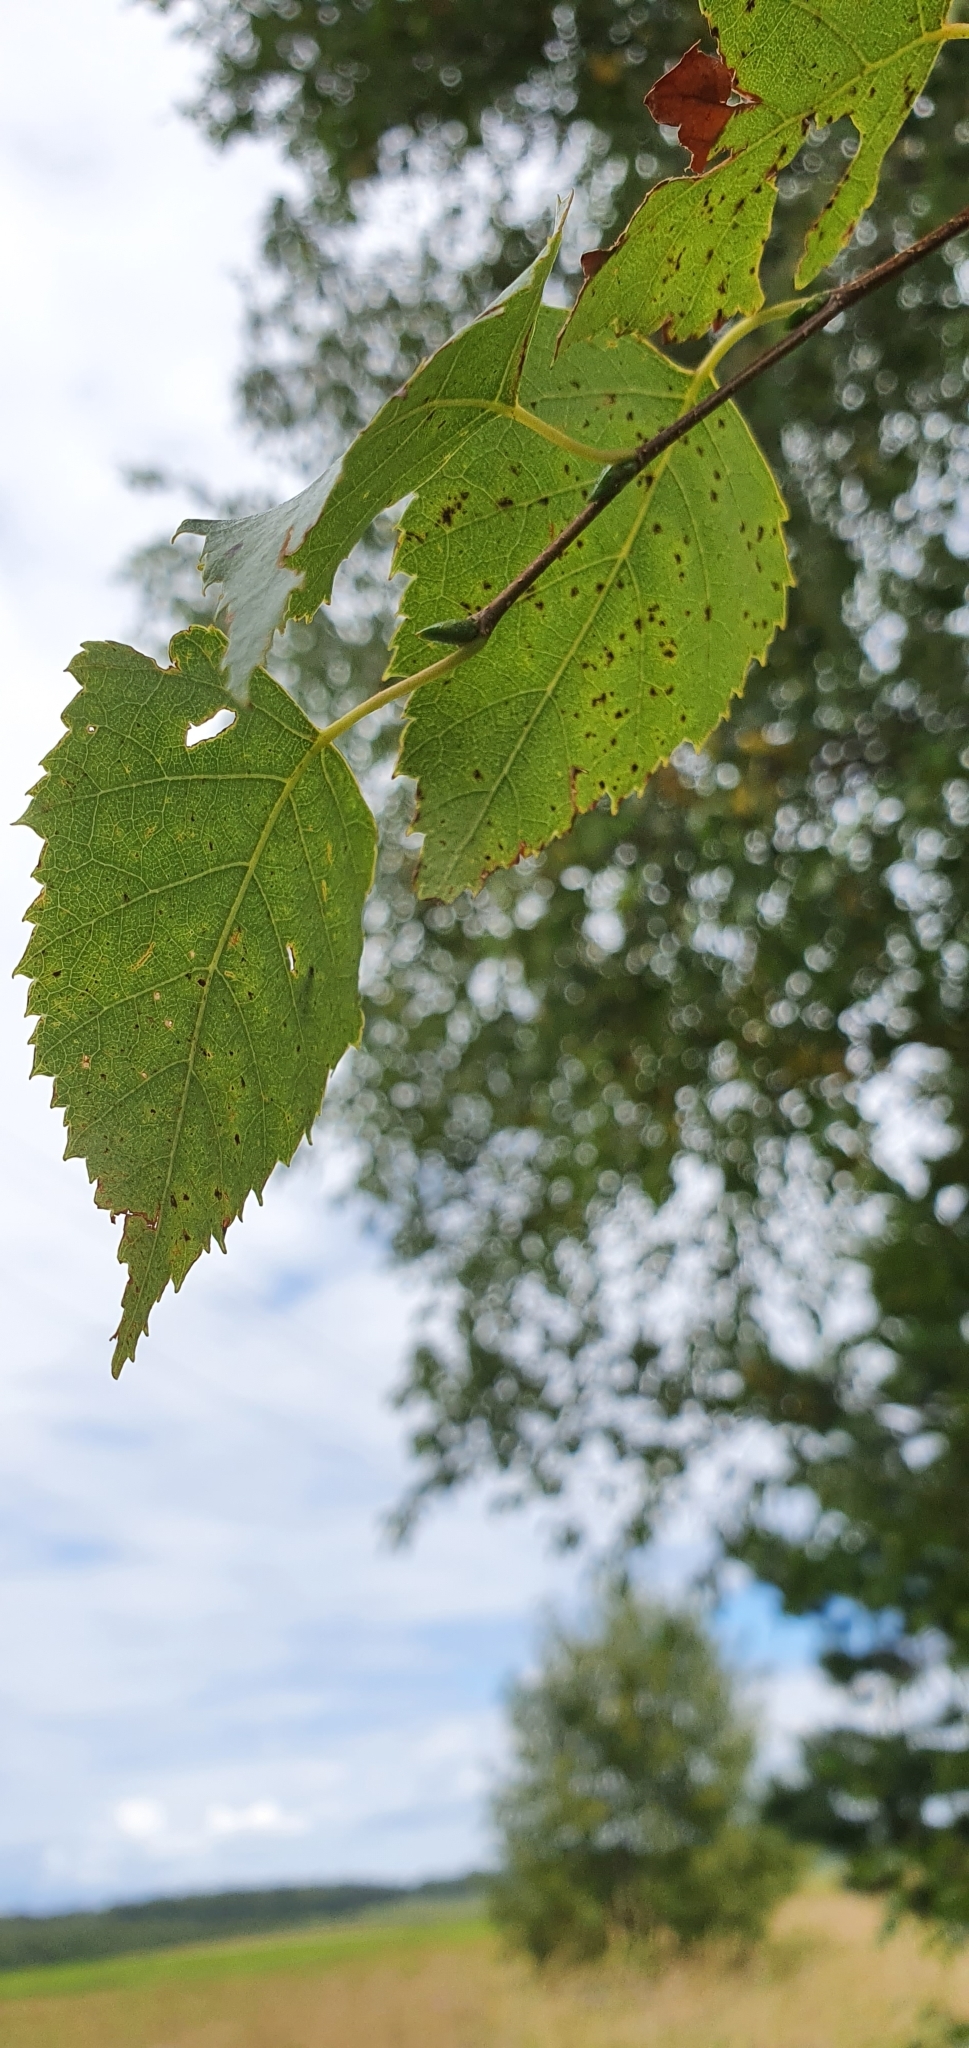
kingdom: Plantae
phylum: Tracheophyta
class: Magnoliopsida
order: Fagales
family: Betulaceae
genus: Betula
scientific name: Betula pendula
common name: Silver birch
